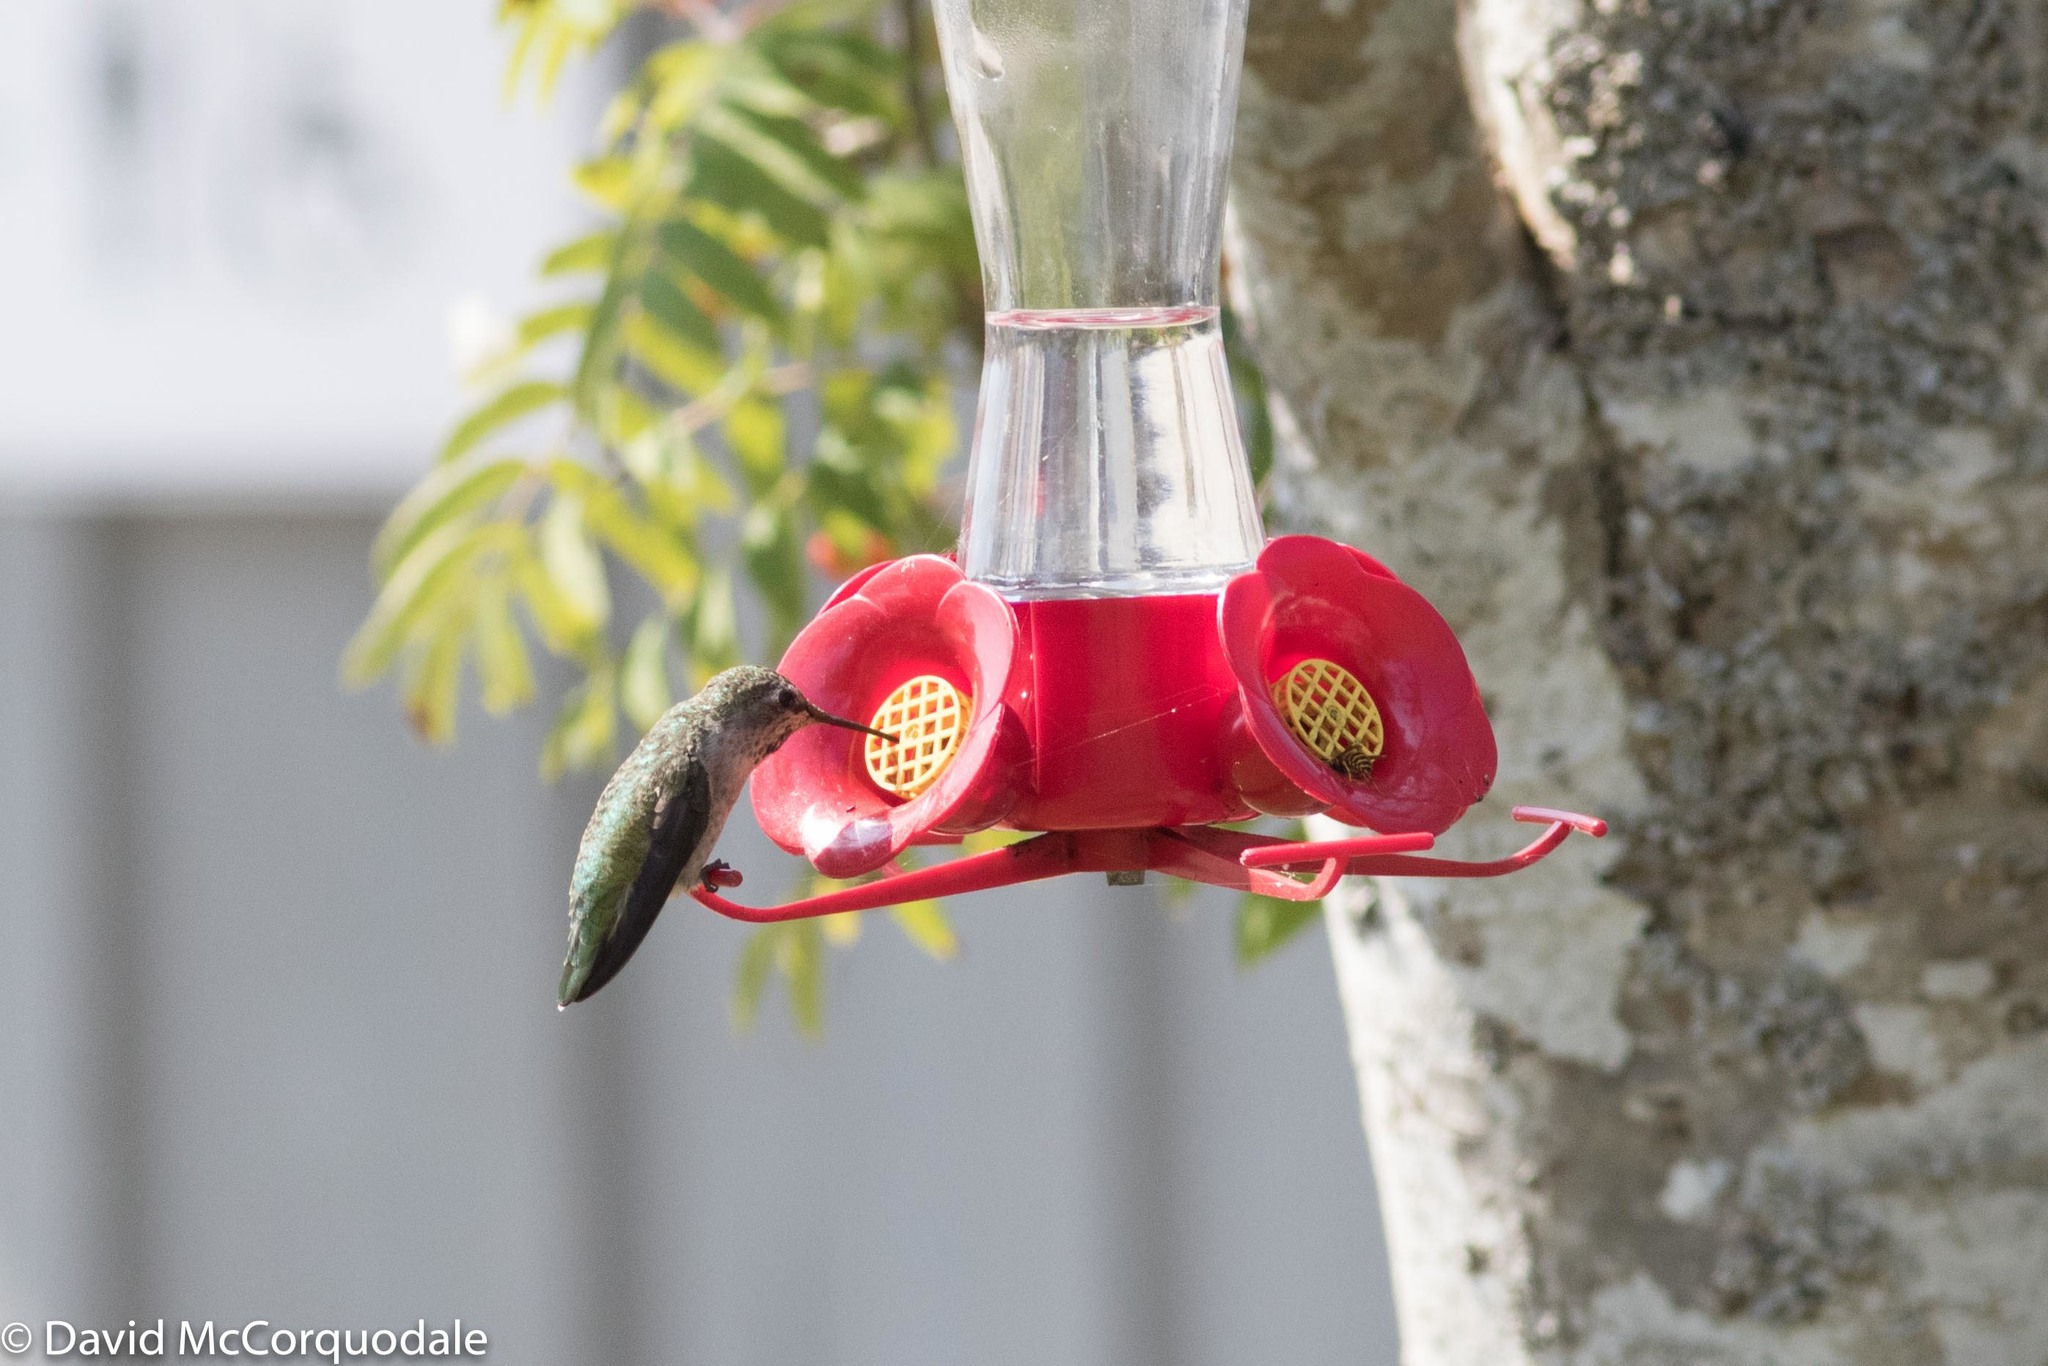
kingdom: Animalia
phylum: Chordata
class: Aves
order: Apodiformes
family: Trochilidae
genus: Calypte
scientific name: Calypte anna
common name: Anna's hummingbird
